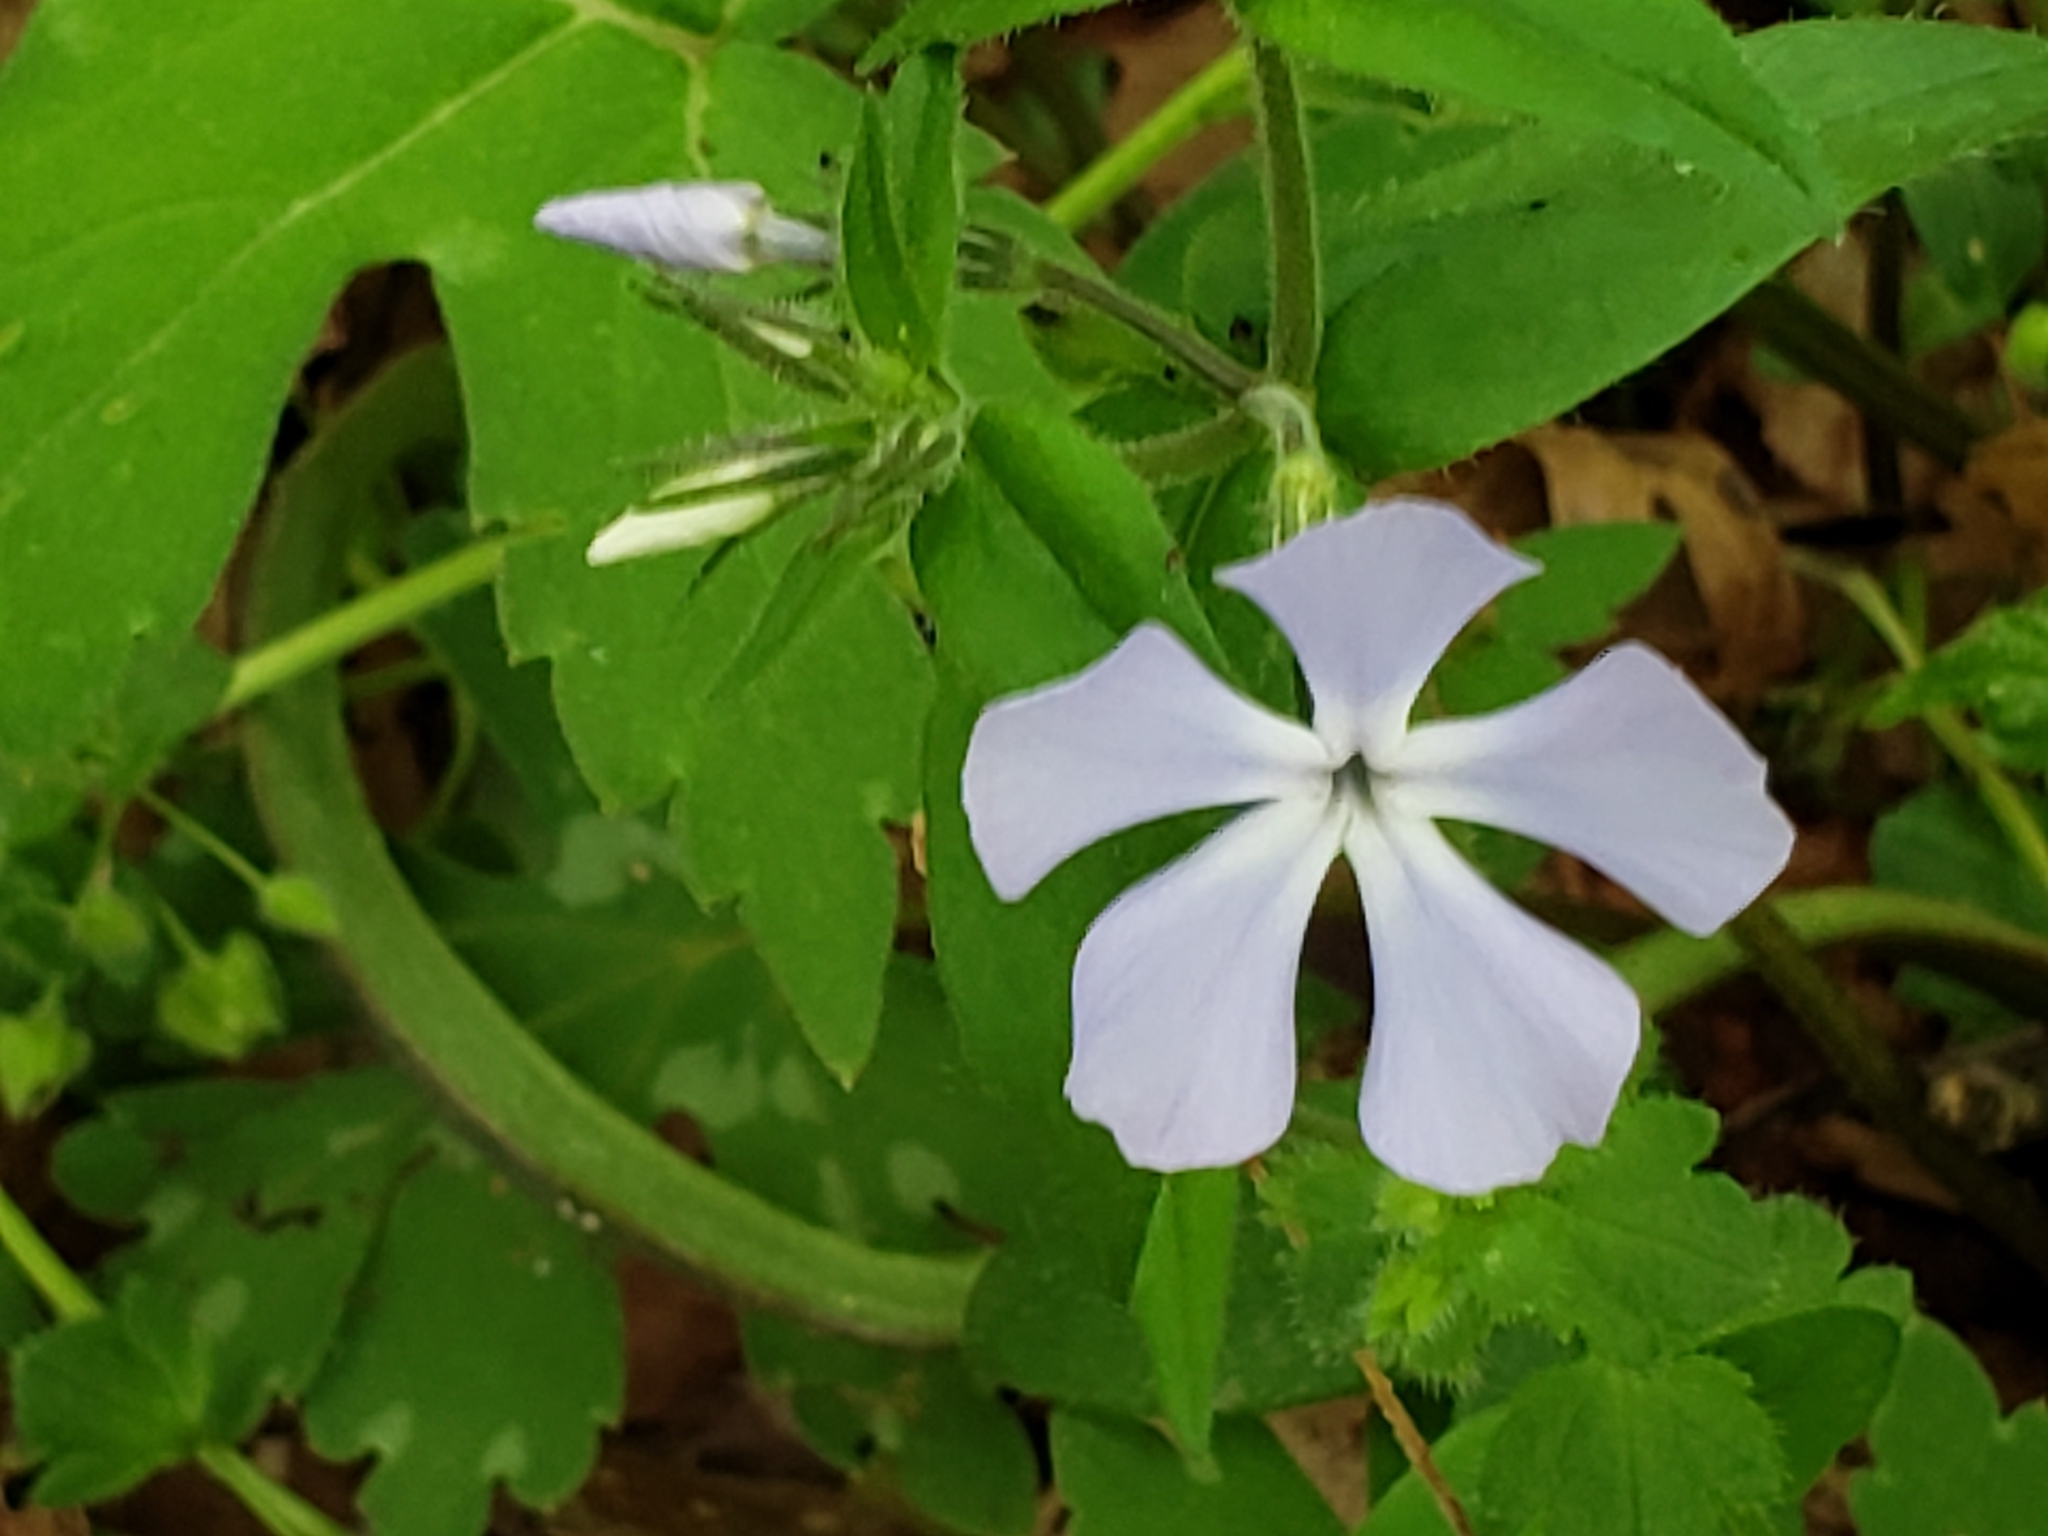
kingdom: Plantae
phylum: Tracheophyta
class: Magnoliopsida
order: Ericales
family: Polemoniaceae
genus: Phlox
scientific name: Phlox divaricata
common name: Blue phlox
